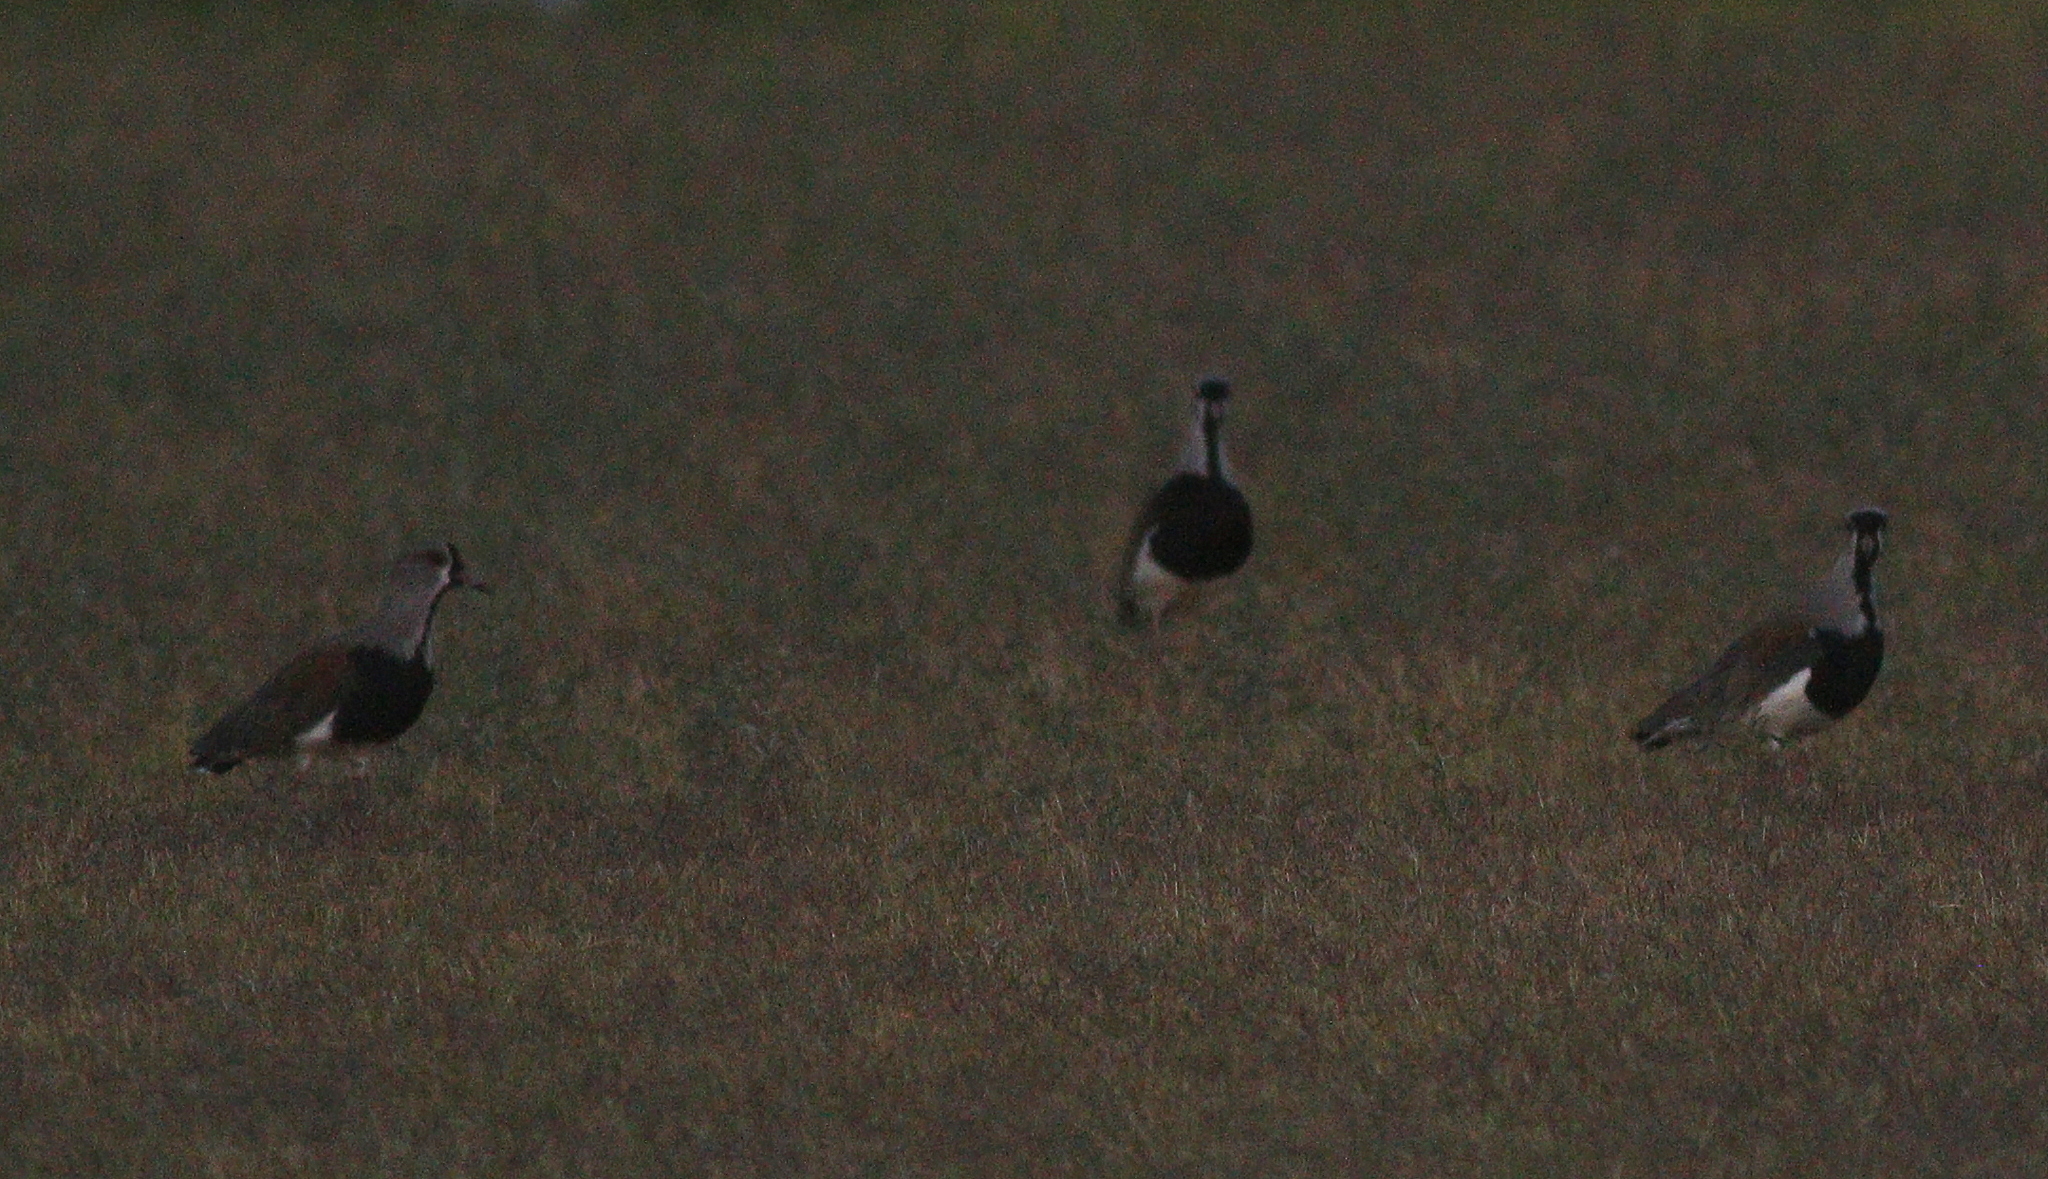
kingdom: Animalia
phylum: Chordata
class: Aves
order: Charadriiformes
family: Charadriidae
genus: Vanellus
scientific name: Vanellus chilensis
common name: Southern lapwing
